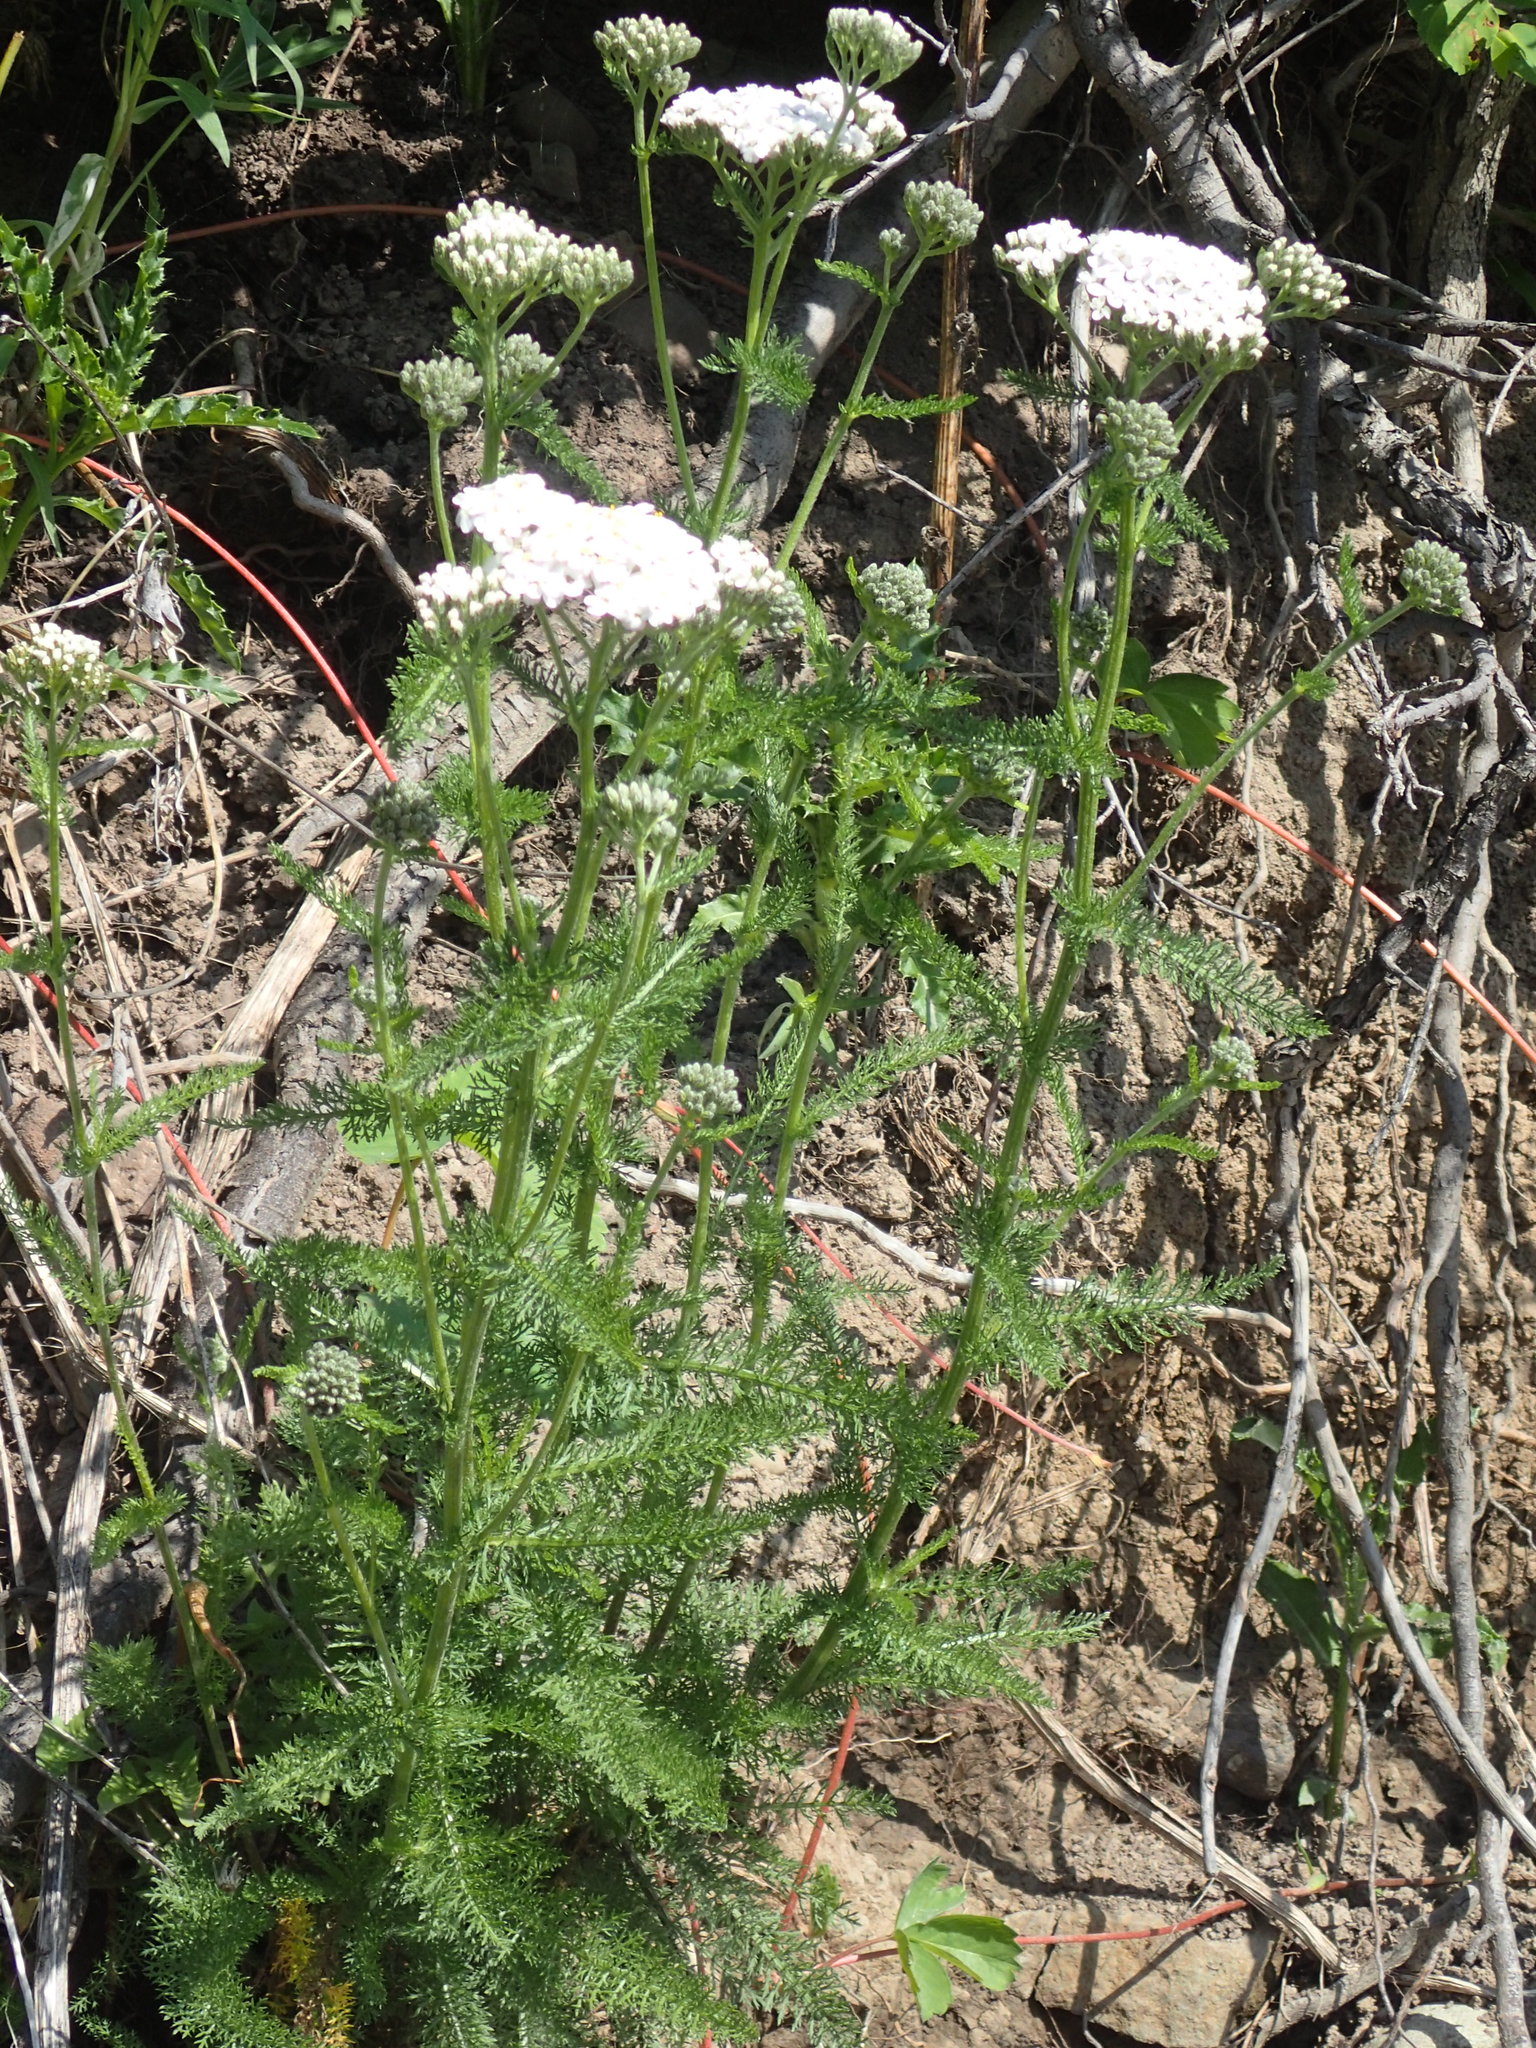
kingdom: Plantae
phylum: Tracheophyta
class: Magnoliopsida
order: Asterales
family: Asteraceae
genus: Achillea
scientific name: Achillea millefolium
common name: Yarrow
